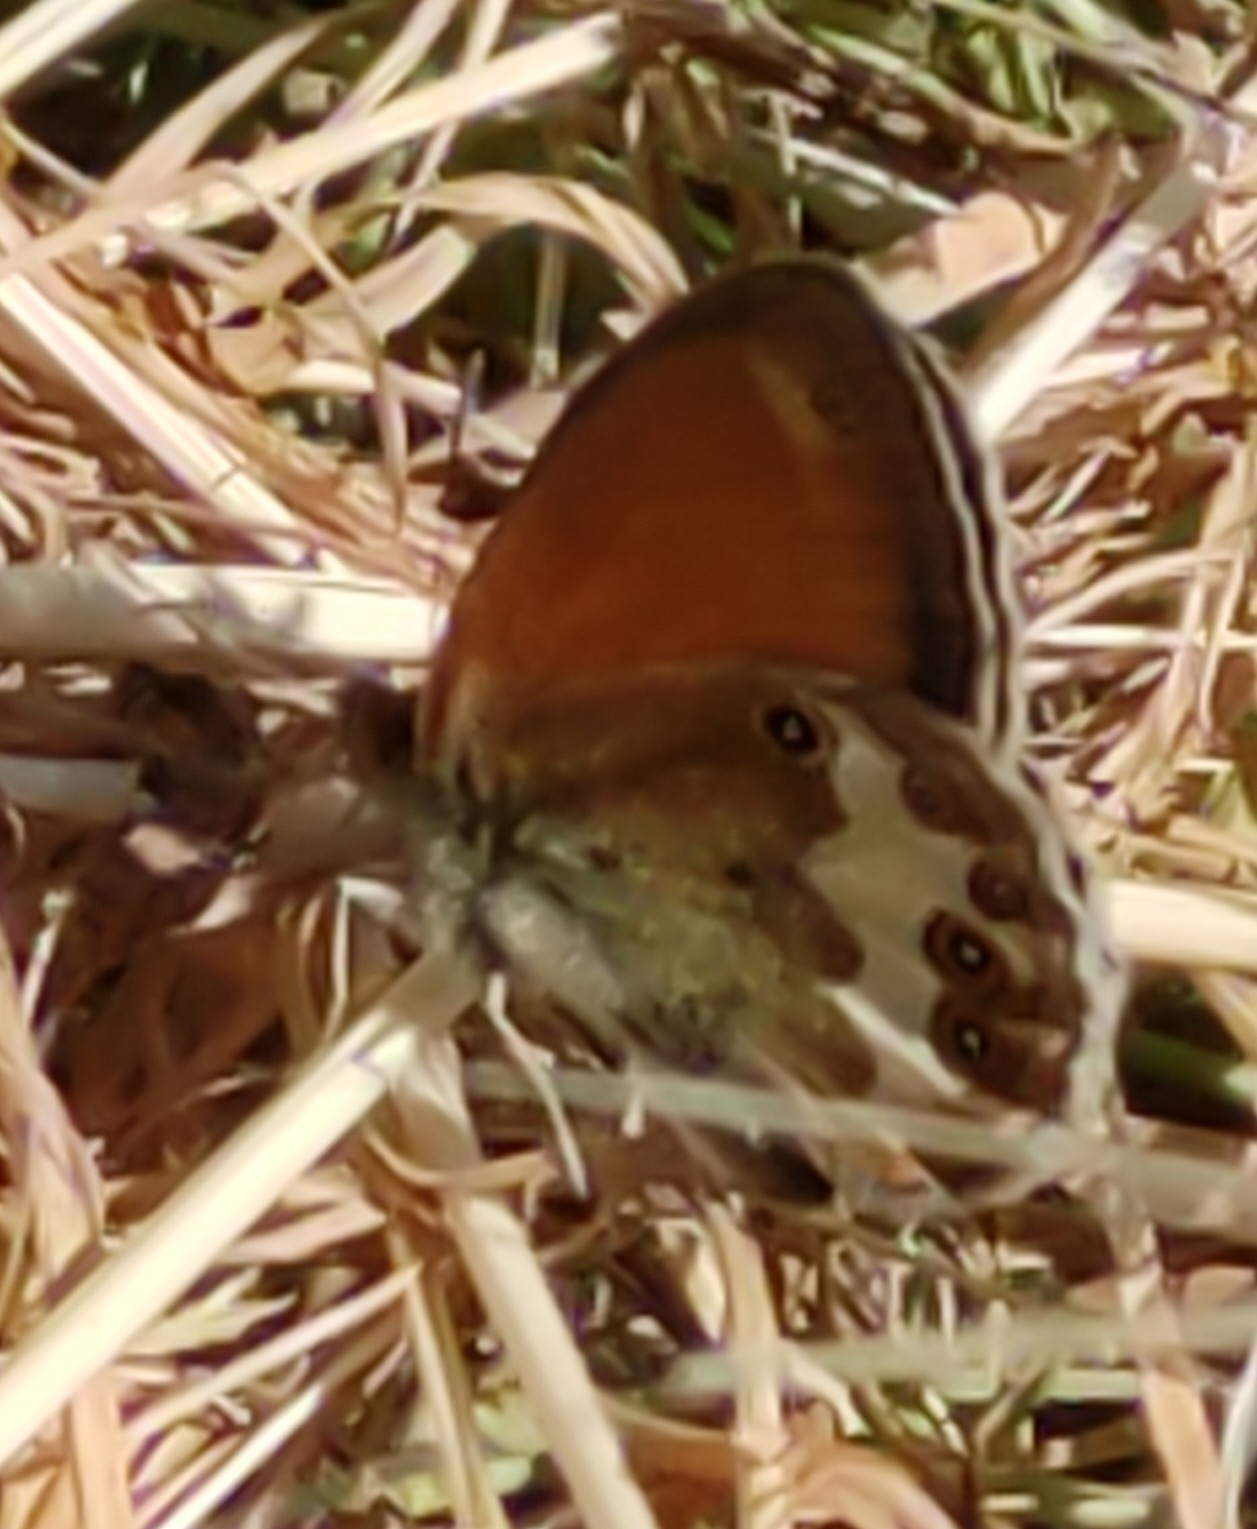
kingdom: Animalia
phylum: Arthropoda
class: Insecta
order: Lepidoptera
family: Nymphalidae
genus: Coenonympha
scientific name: Coenonympha arcania
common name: Pearly heath
